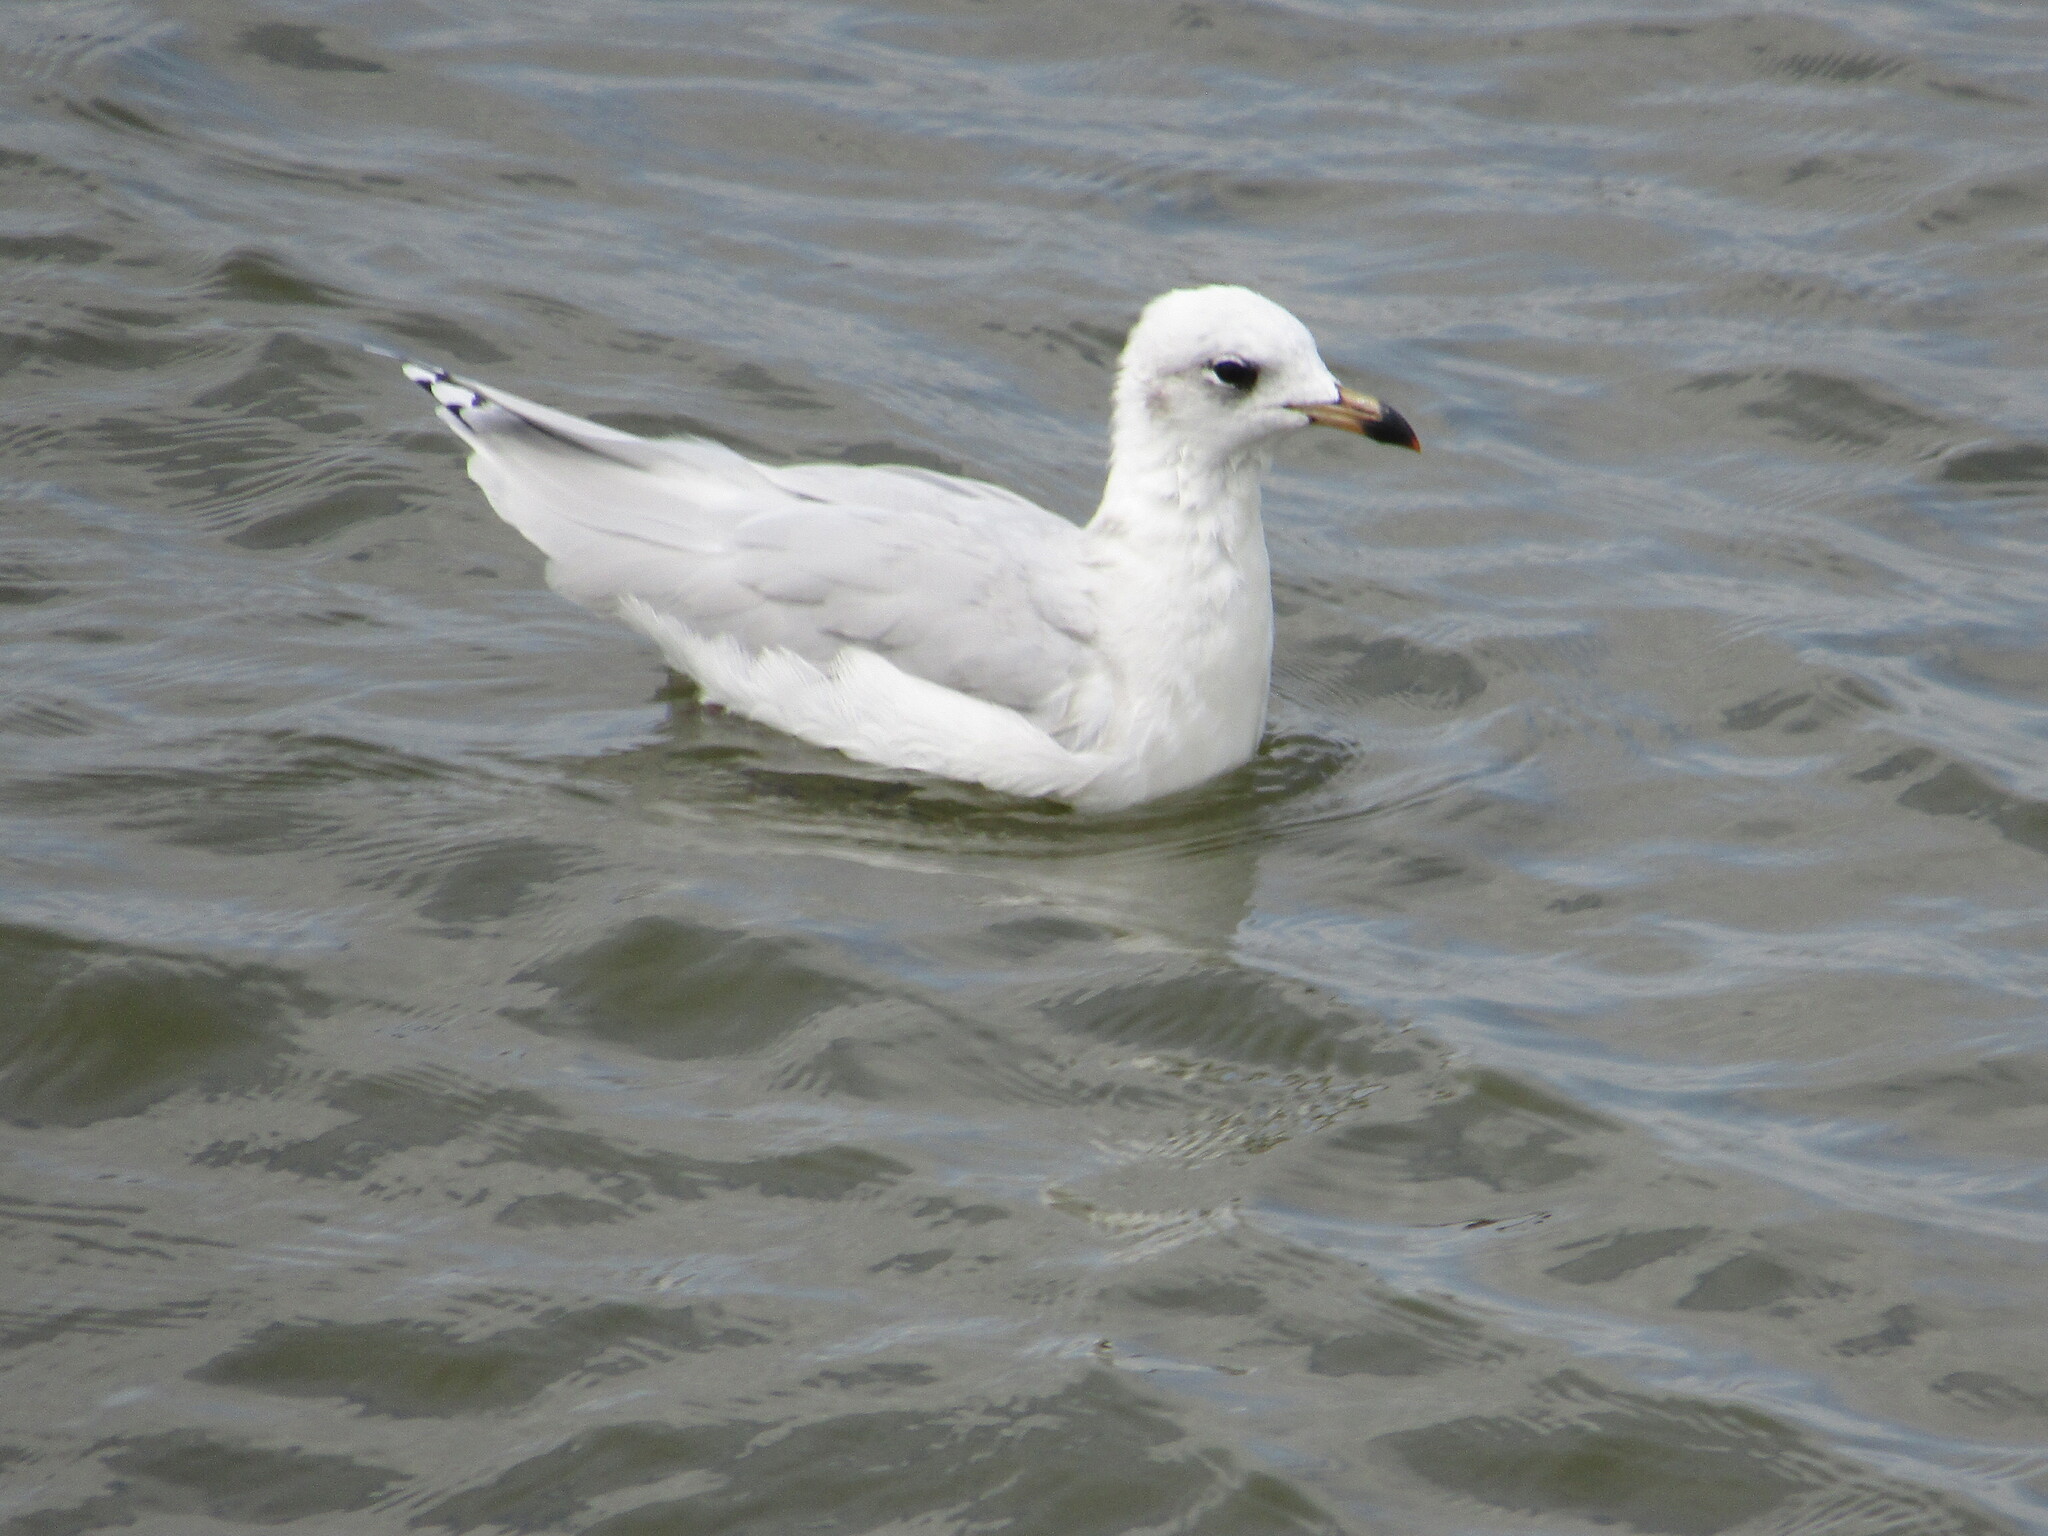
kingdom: Animalia
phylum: Chordata
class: Aves
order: Charadriiformes
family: Laridae
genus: Ichthyaetus
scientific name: Ichthyaetus melanocephalus
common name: Mediterranean gull
